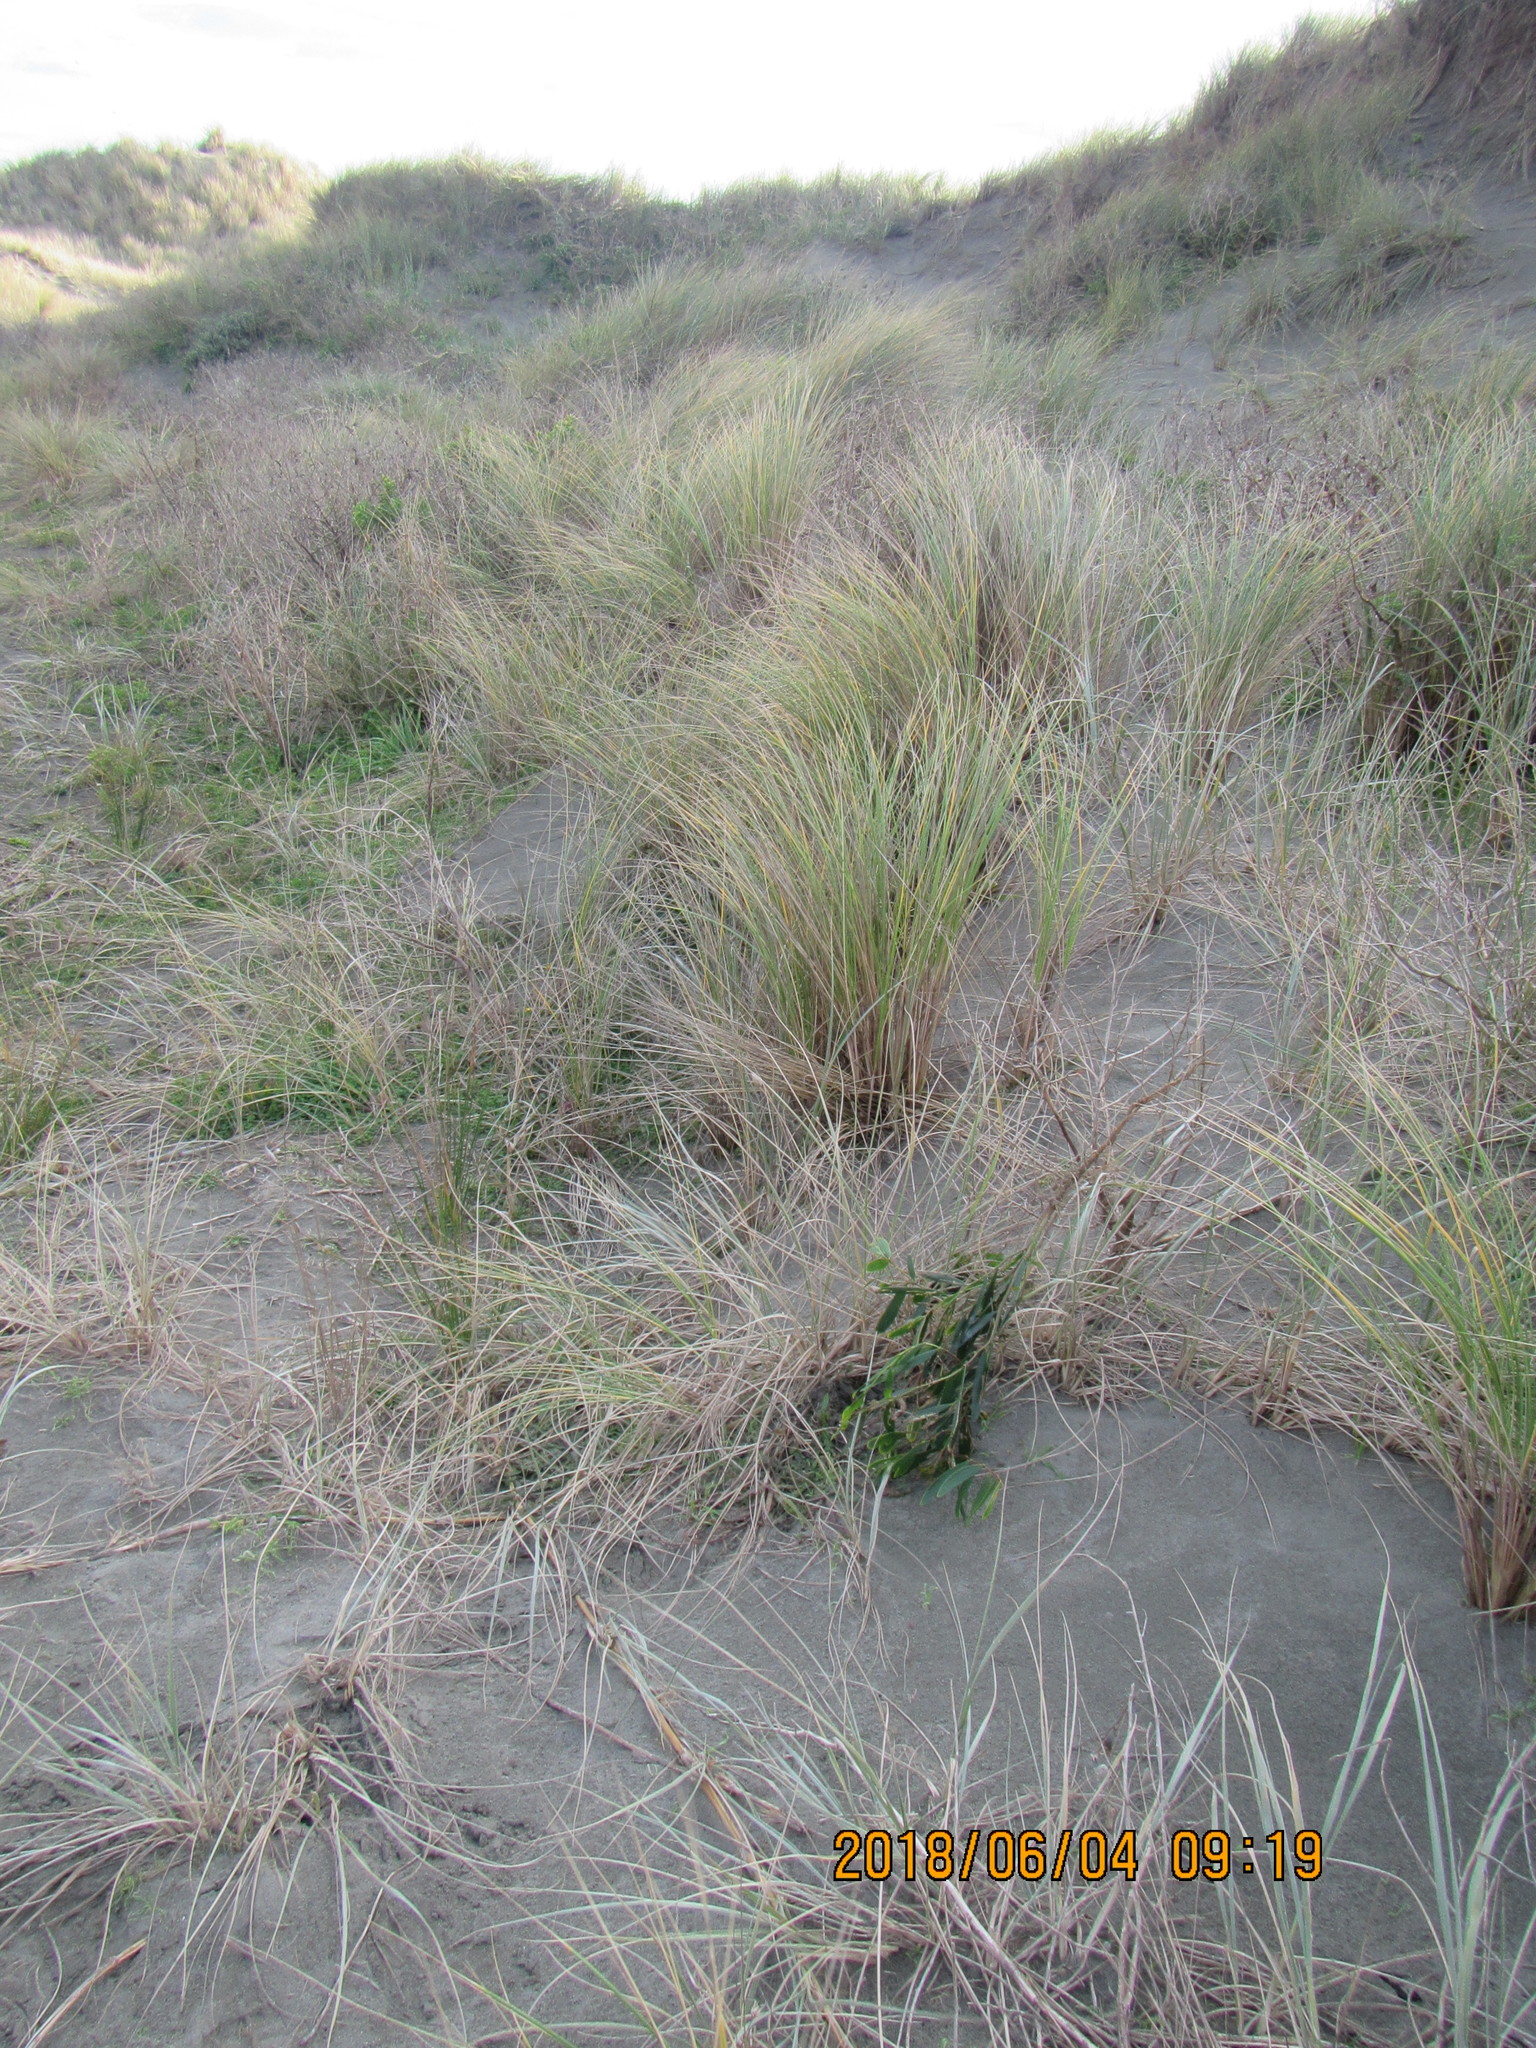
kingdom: Plantae
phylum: Tracheophyta
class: Magnoliopsida
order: Fabales
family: Fabaceae
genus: Acacia
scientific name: Acacia longifolia
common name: Sydney golden wattle
